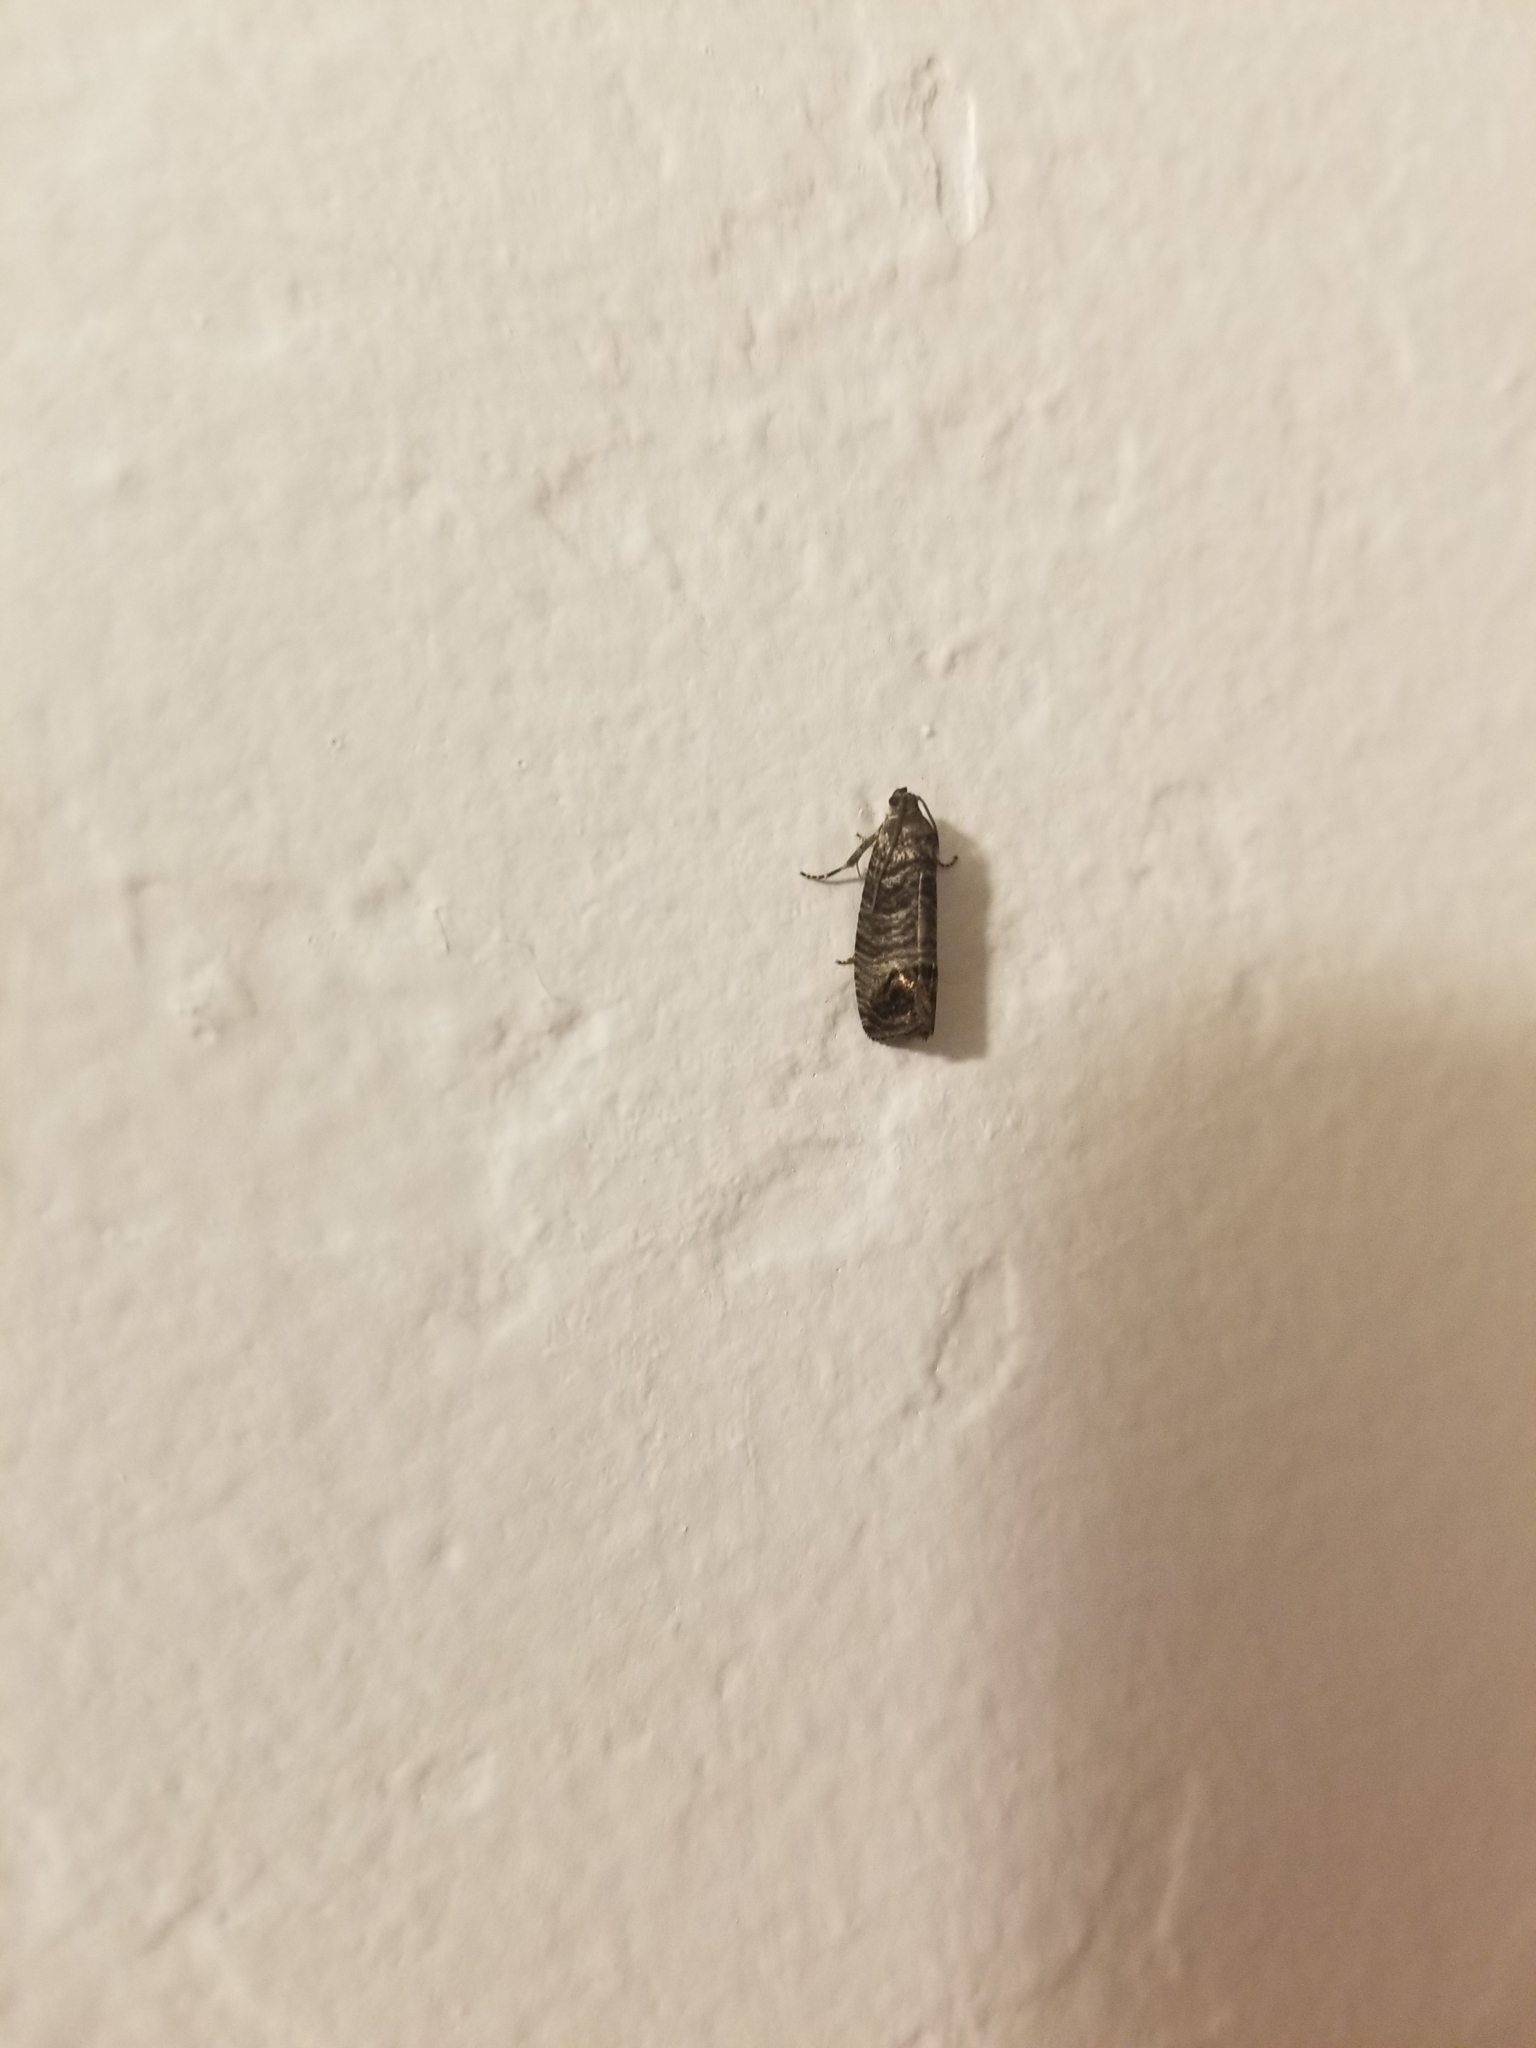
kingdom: Animalia
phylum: Arthropoda
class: Insecta
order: Lepidoptera
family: Tortricidae
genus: Cydia
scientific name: Cydia pomonella
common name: Codling moth
